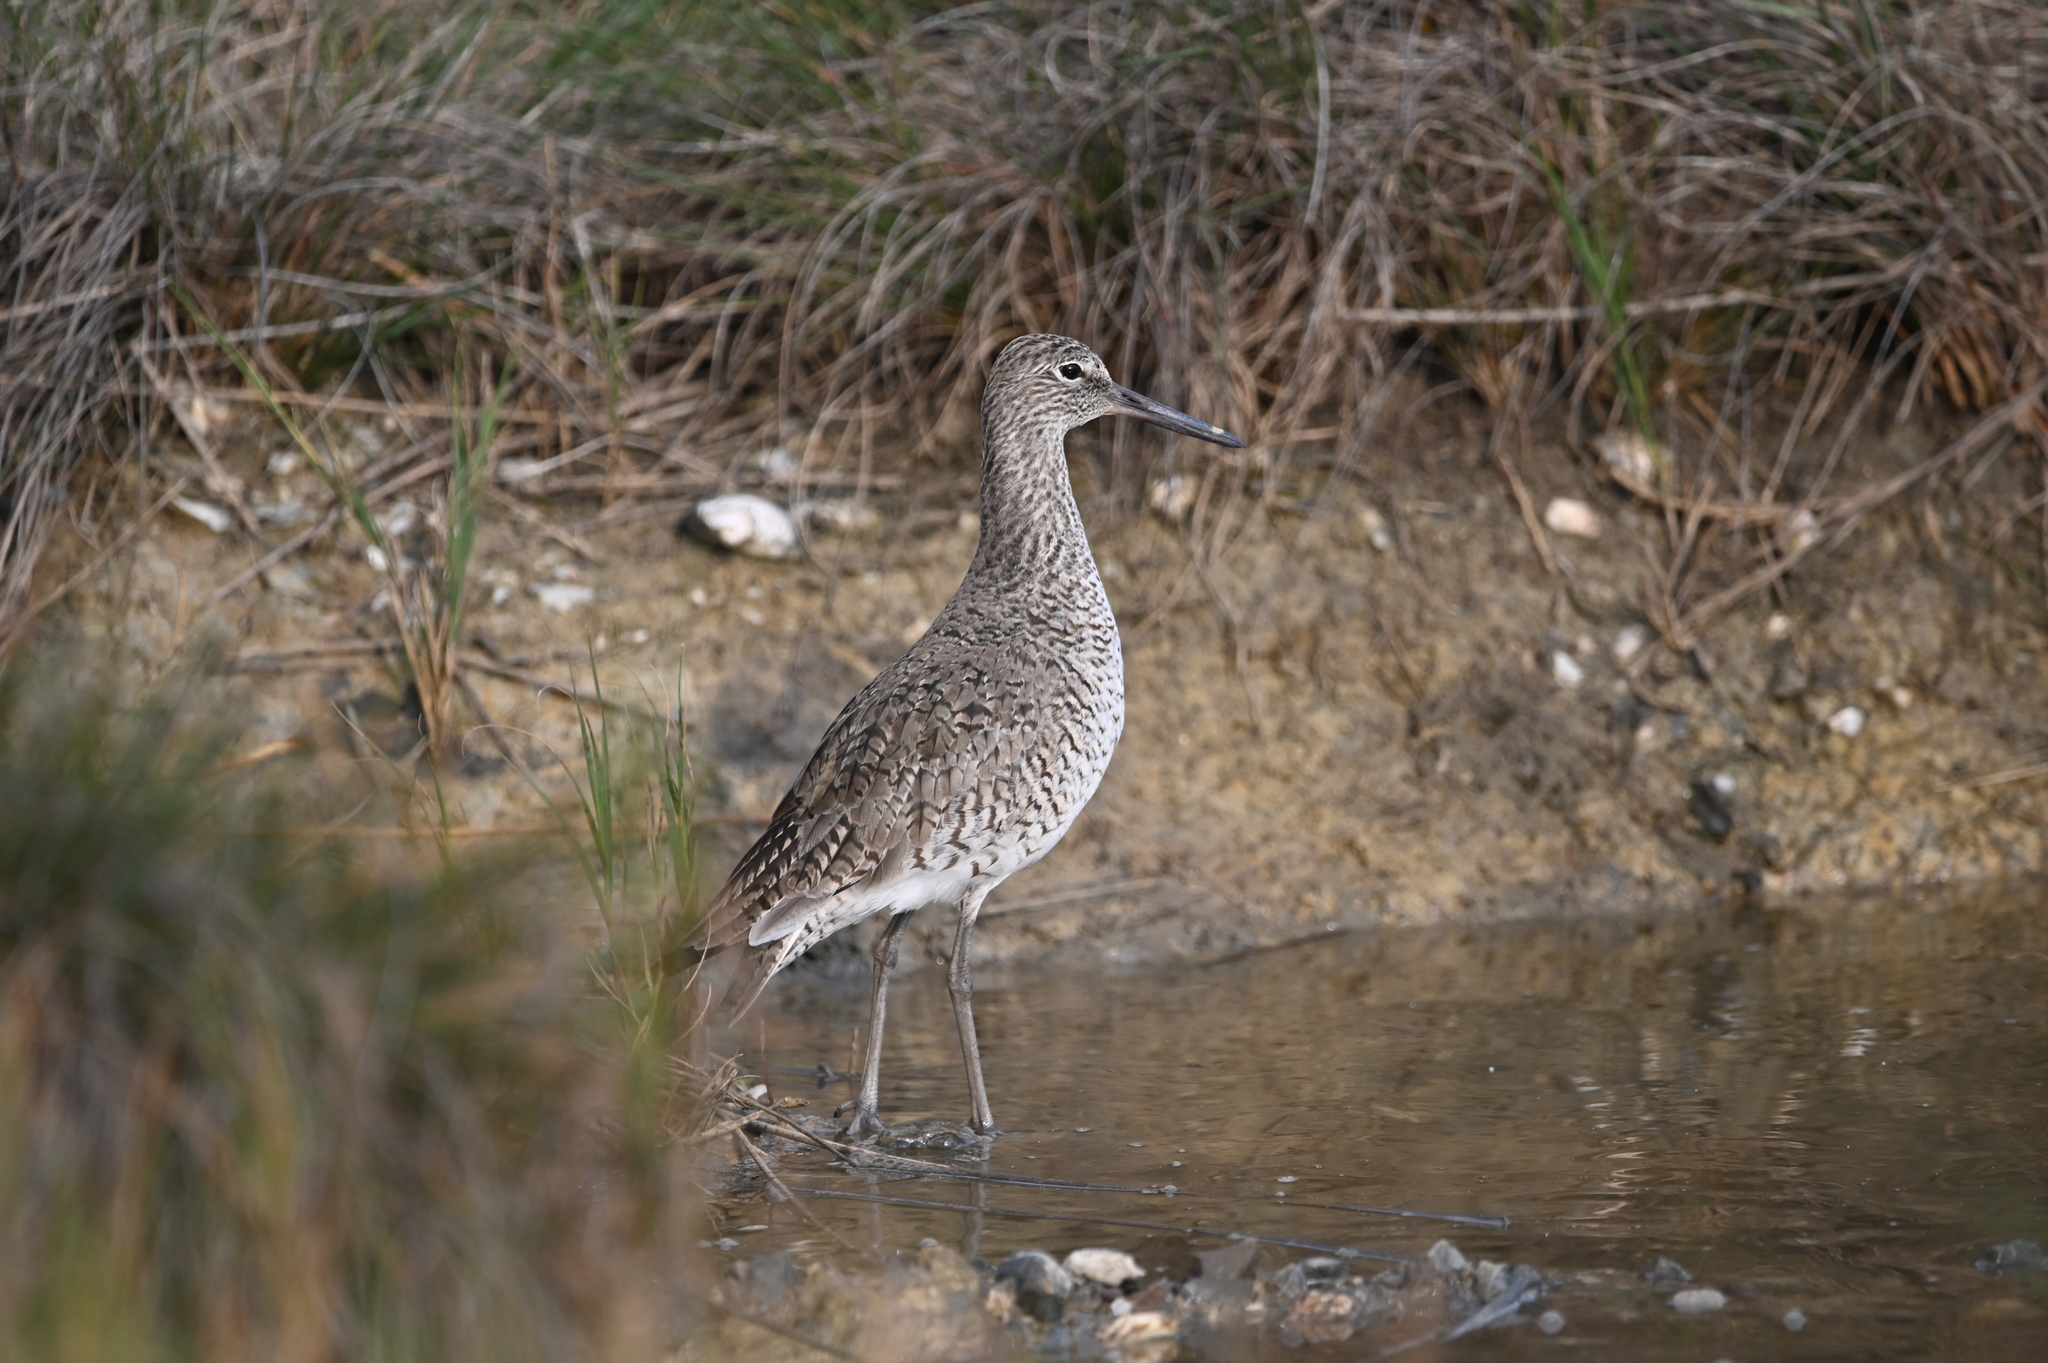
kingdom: Animalia
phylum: Chordata
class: Aves
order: Charadriiformes
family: Scolopacidae
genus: Tringa
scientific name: Tringa semipalmata
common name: Willet
